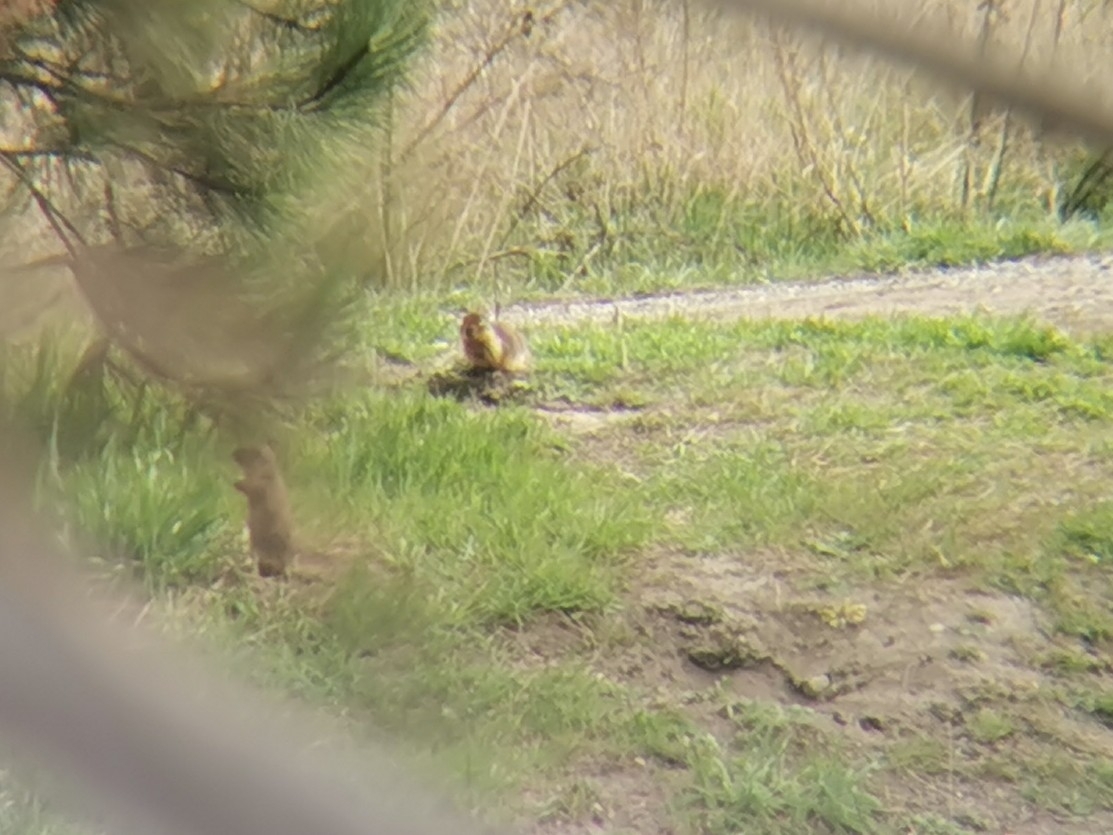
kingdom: Animalia
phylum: Chordata
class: Mammalia
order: Rodentia
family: Sciuridae
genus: Urocitellus
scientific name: Urocitellus columbianus
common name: Columbian ground squirrel
